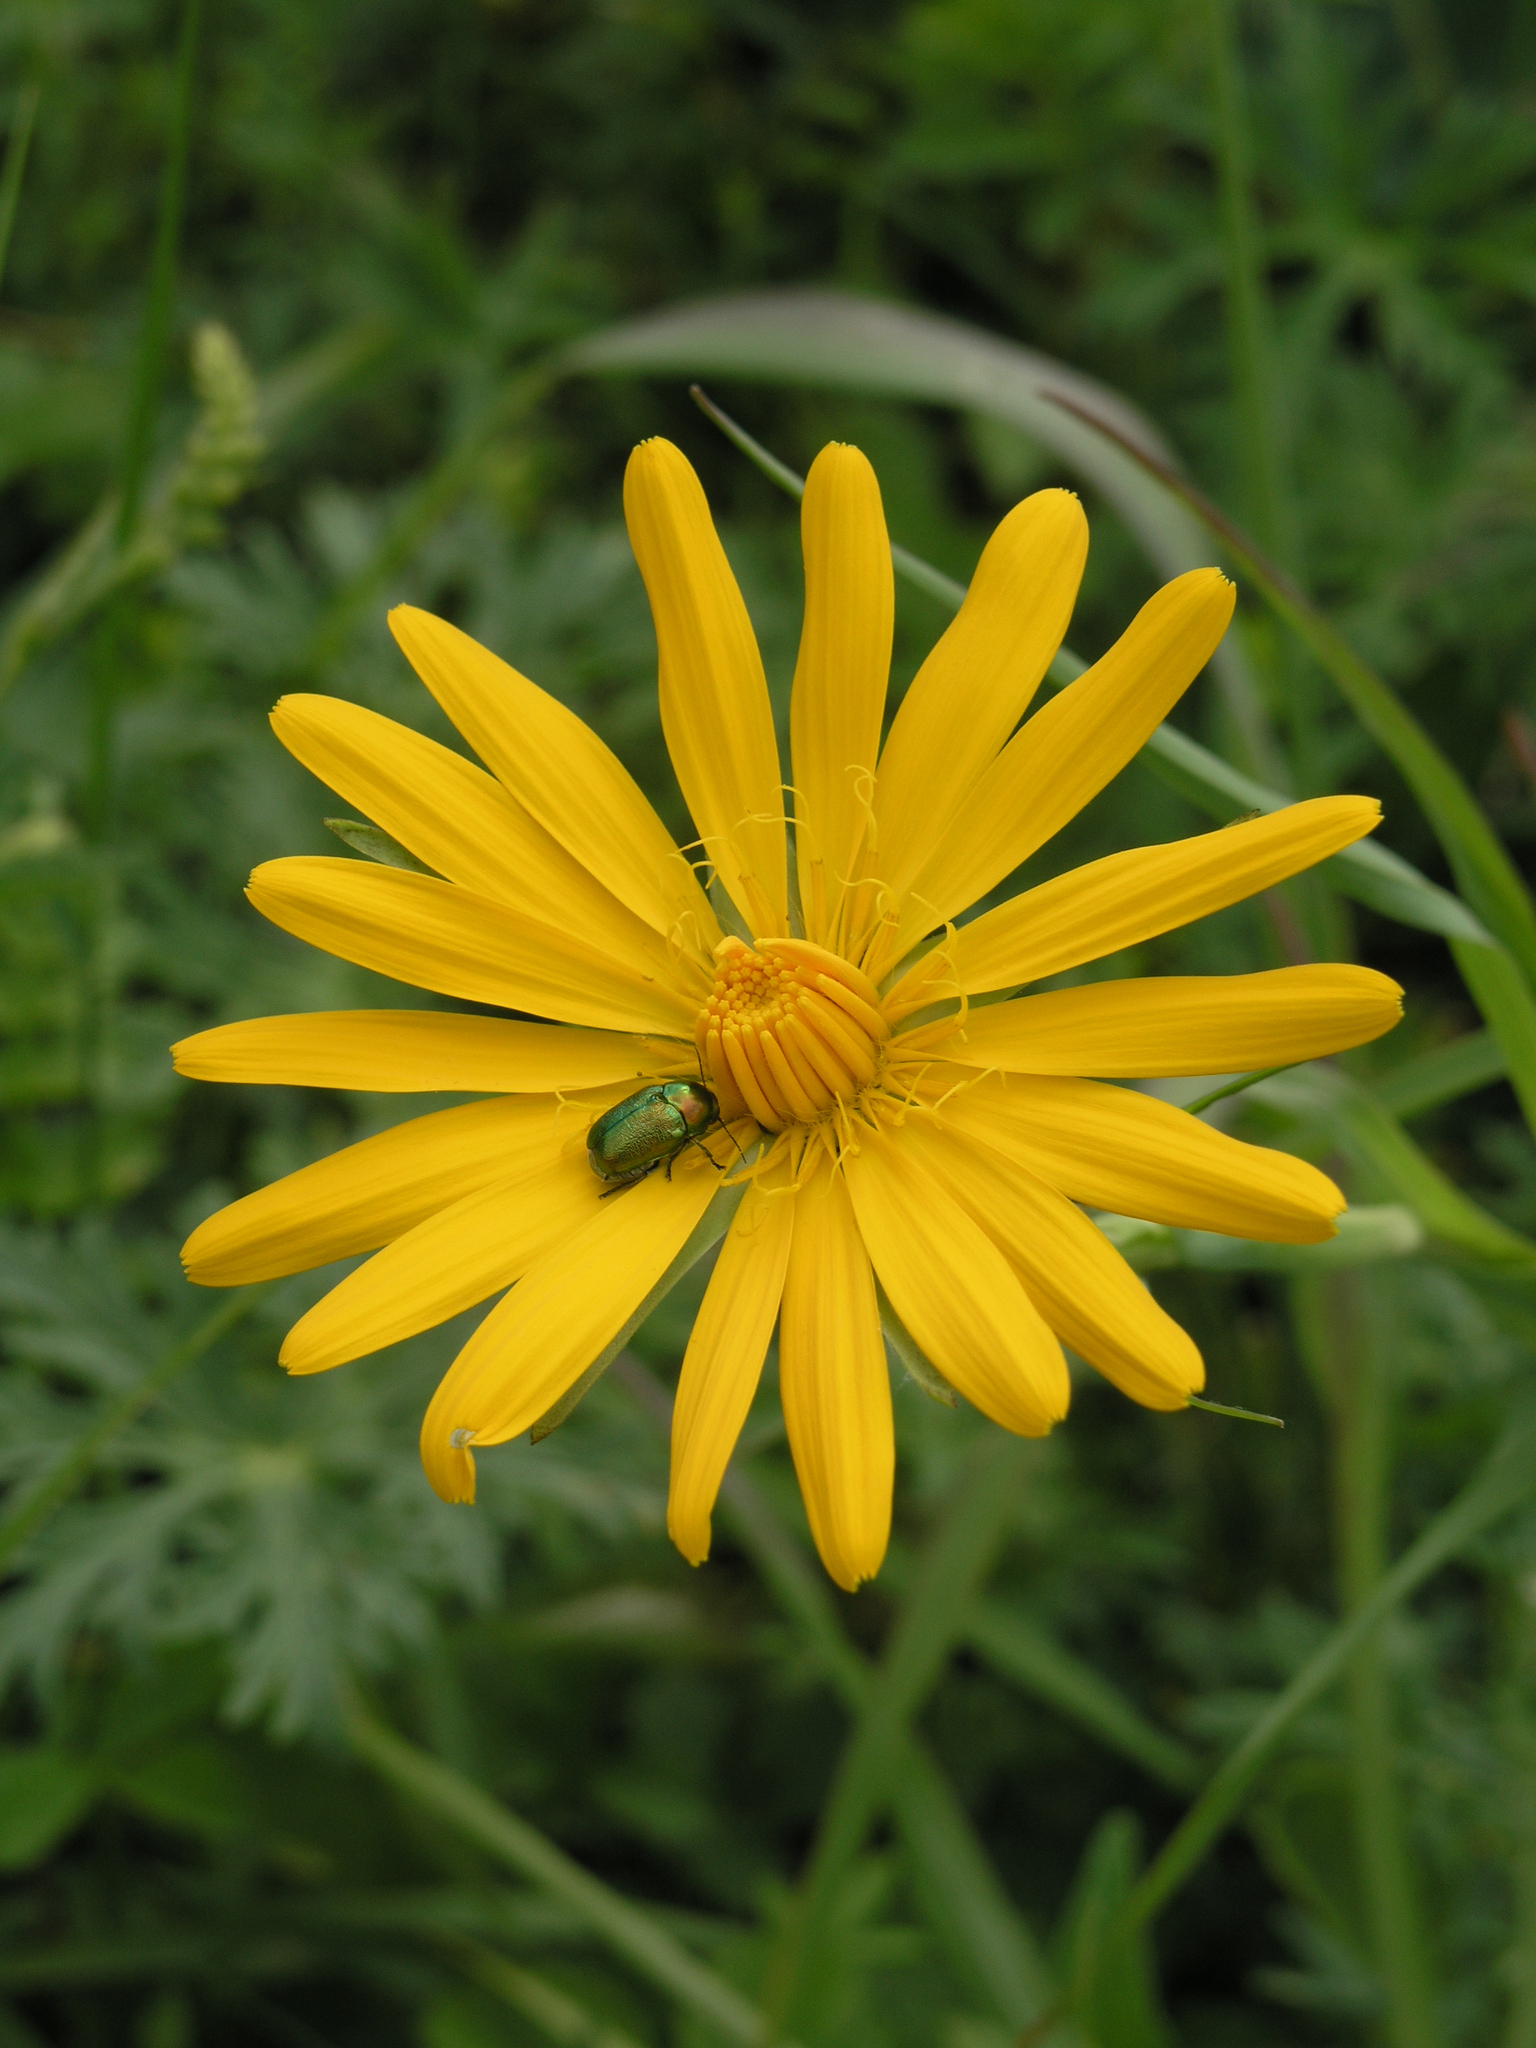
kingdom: Plantae
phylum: Tracheophyta
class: Magnoliopsida
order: Asterales
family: Asteraceae
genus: Tragopogon
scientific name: Tragopogon orientalis
